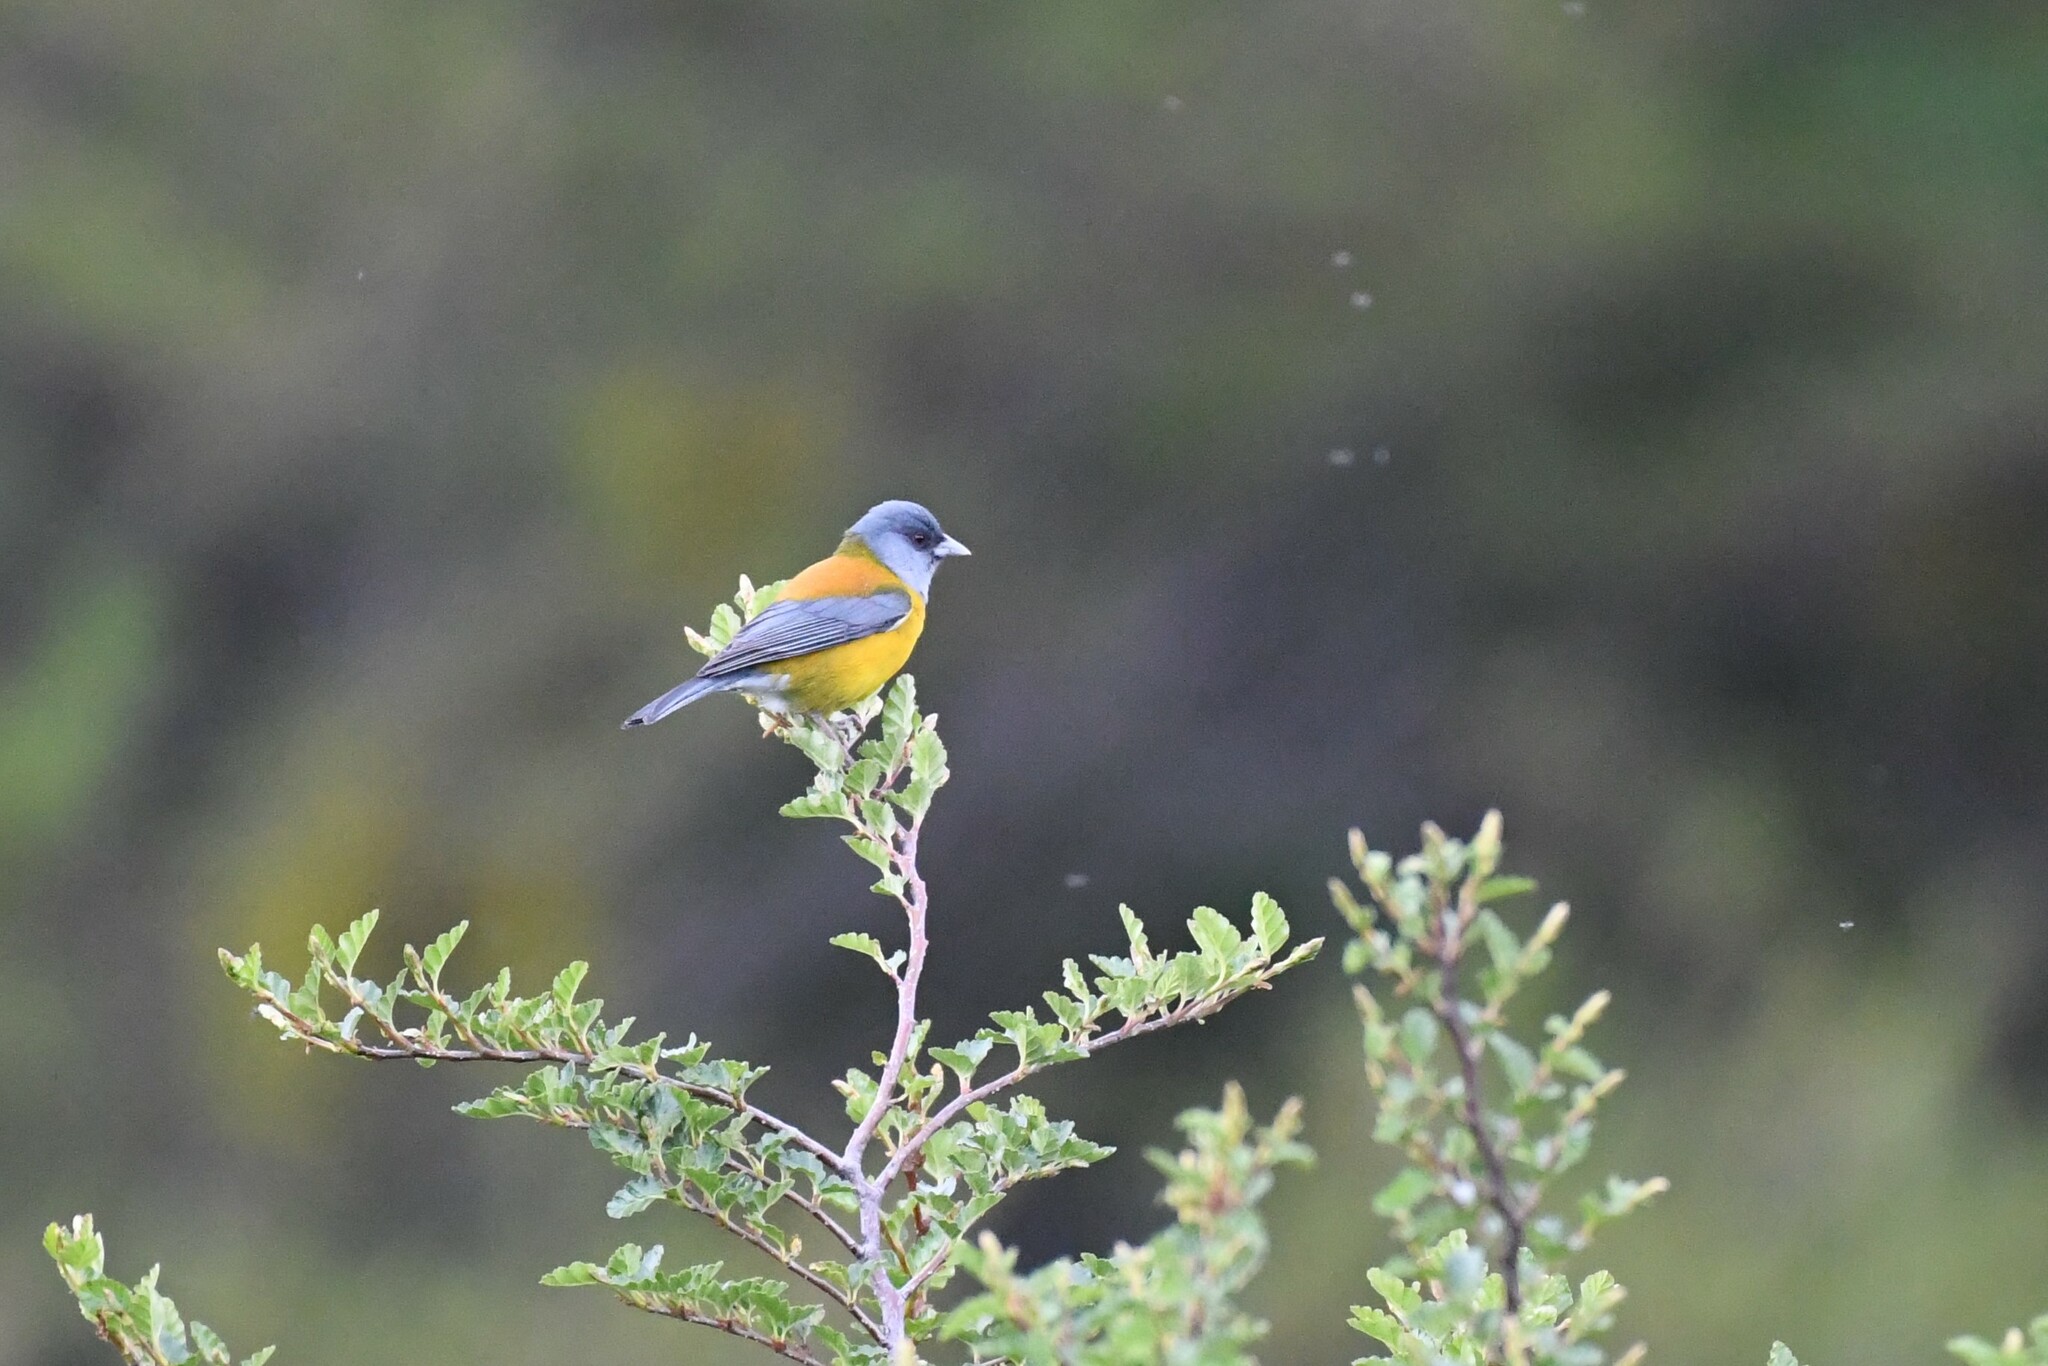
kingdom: Animalia
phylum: Chordata
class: Aves
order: Passeriformes
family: Thraupidae
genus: Phrygilus
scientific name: Phrygilus patagonicus
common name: Patagonian sierra finch
